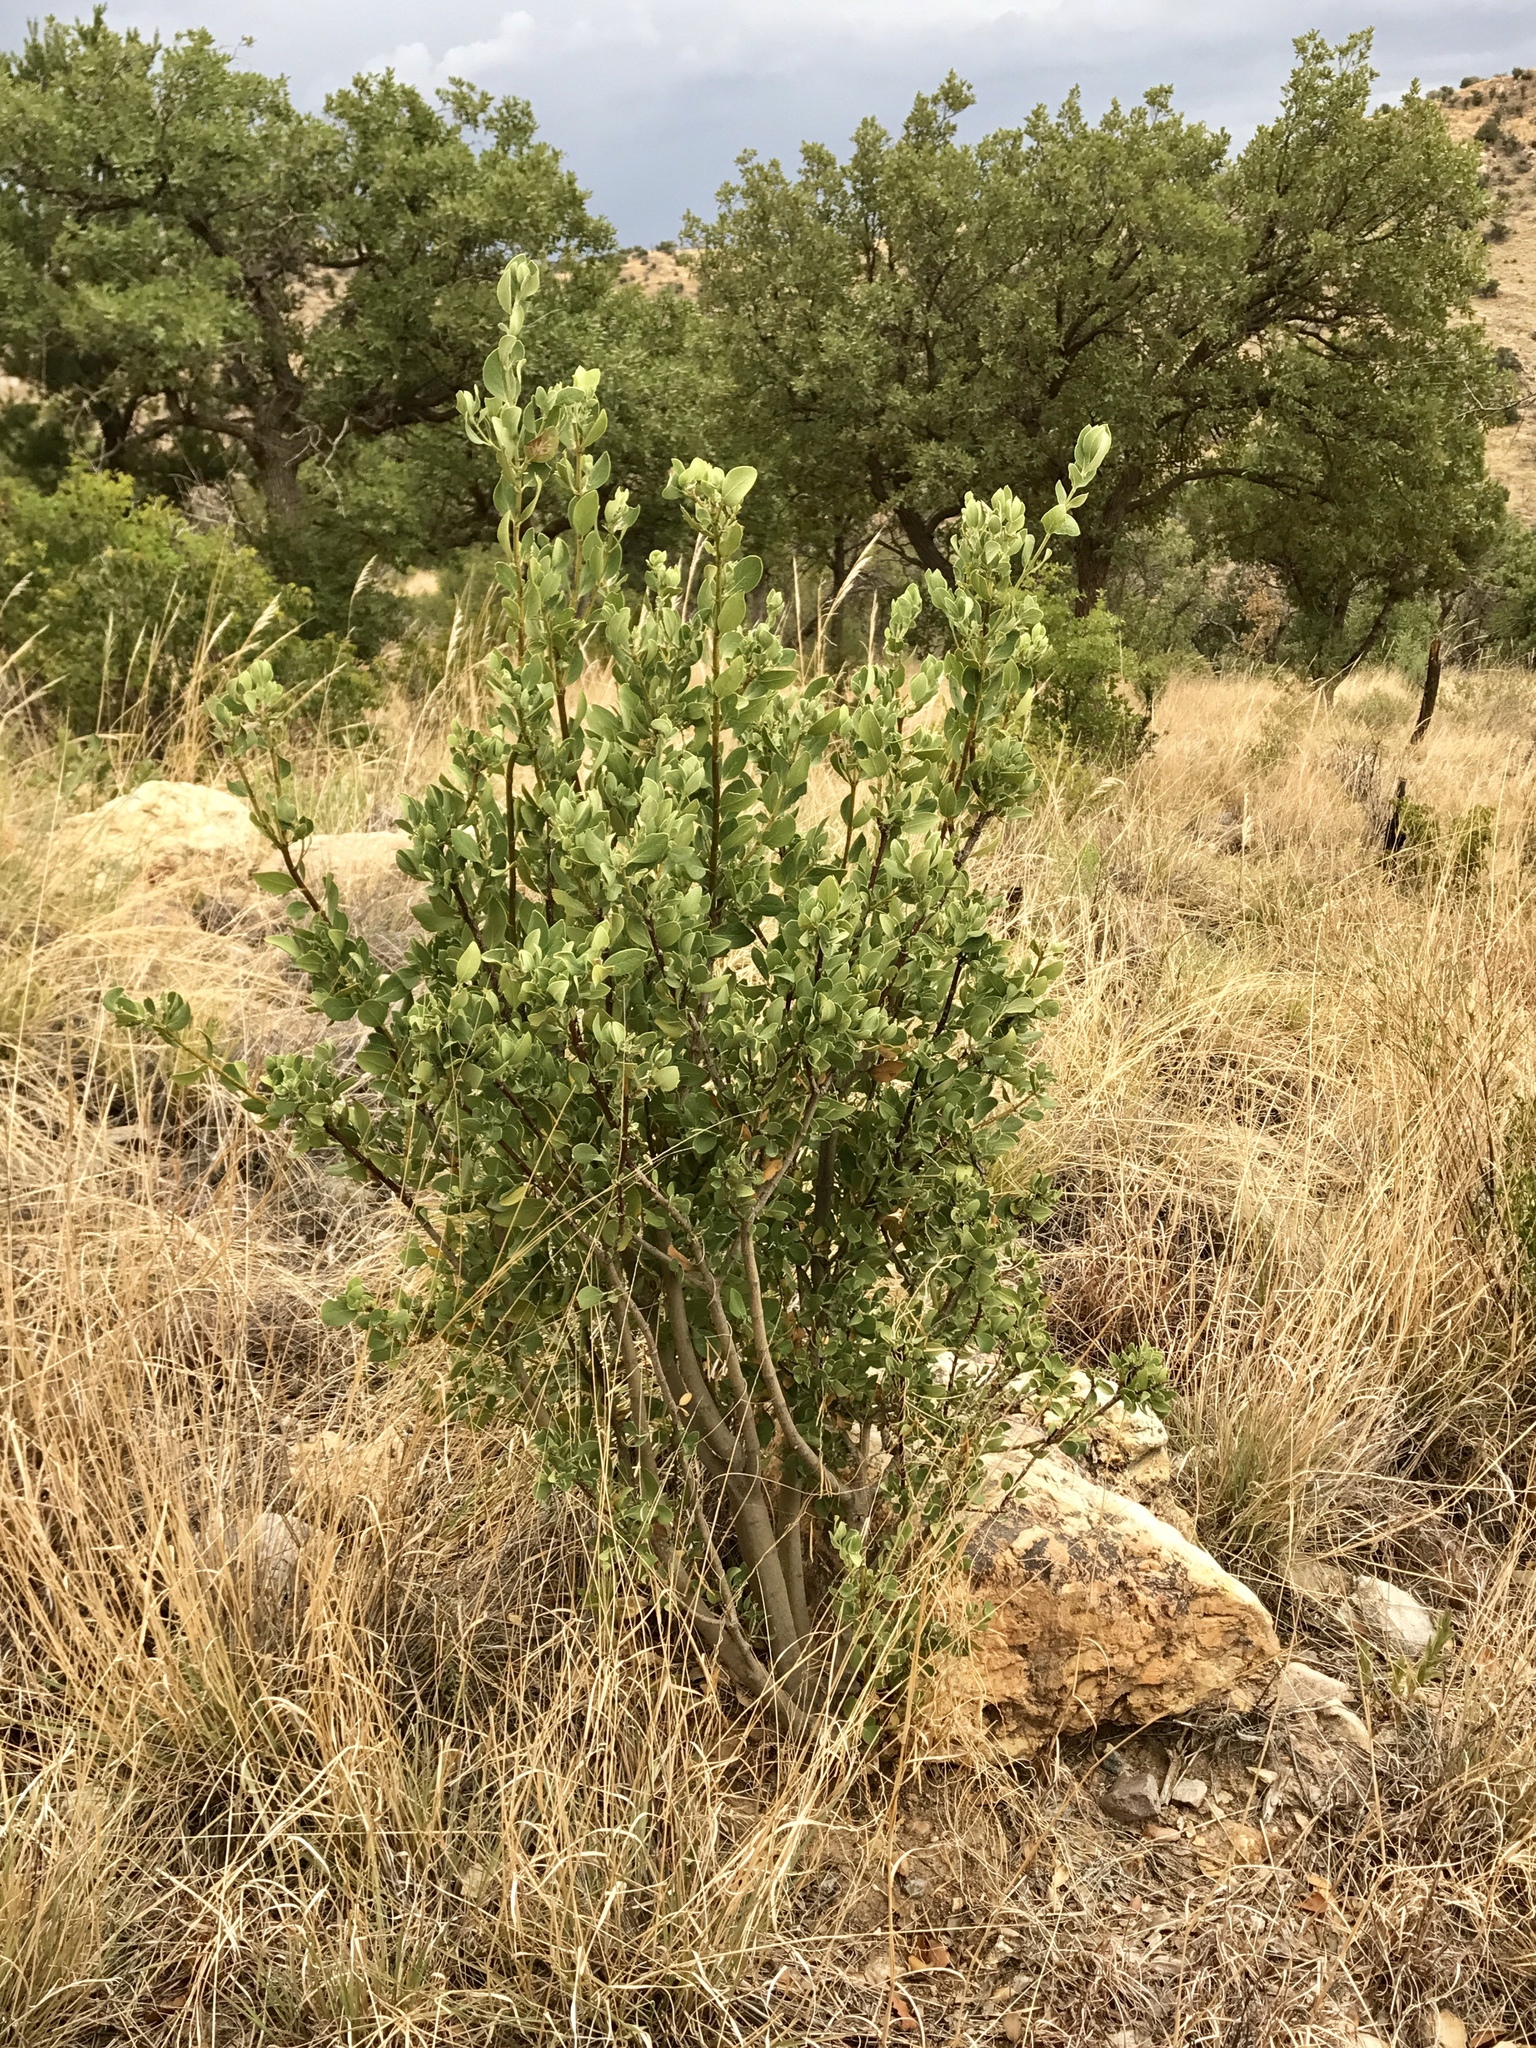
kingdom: Plantae
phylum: Tracheophyta
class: Magnoliopsida
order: Garryales
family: Garryaceae
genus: Garrya
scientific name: Garrya wrightii
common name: Wright's silktassel
